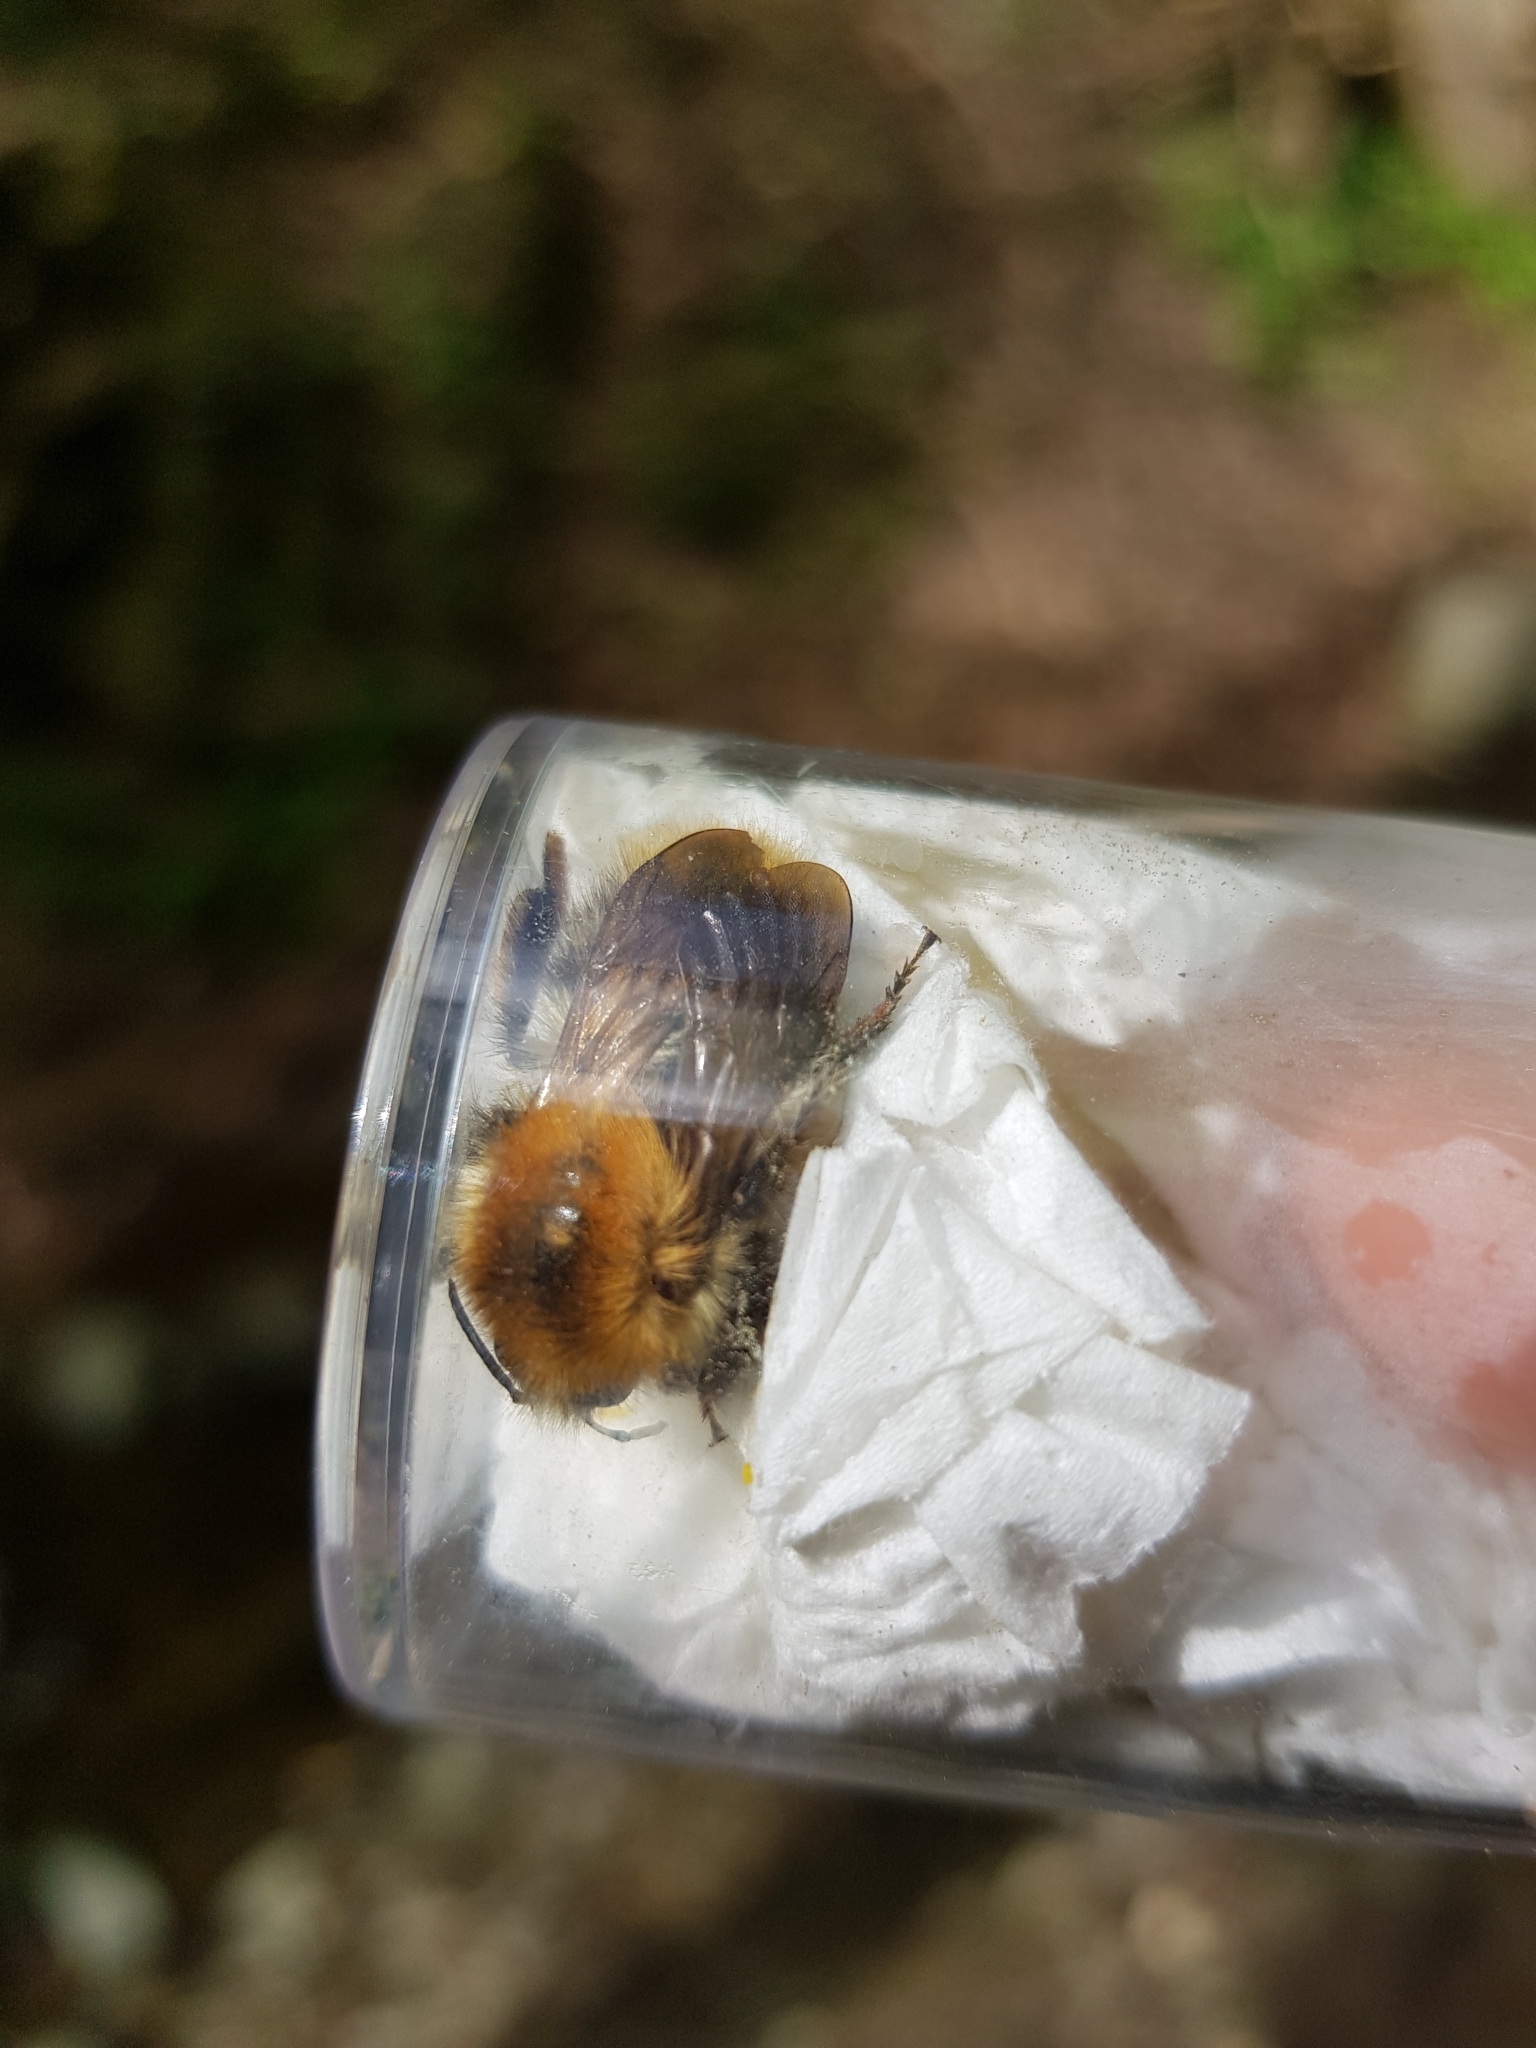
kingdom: Animalia
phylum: Arthropoda
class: Insecta
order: Hymenoptera
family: Apidae
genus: Bombus
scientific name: Bombus pascuorum
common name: Common carder bee
